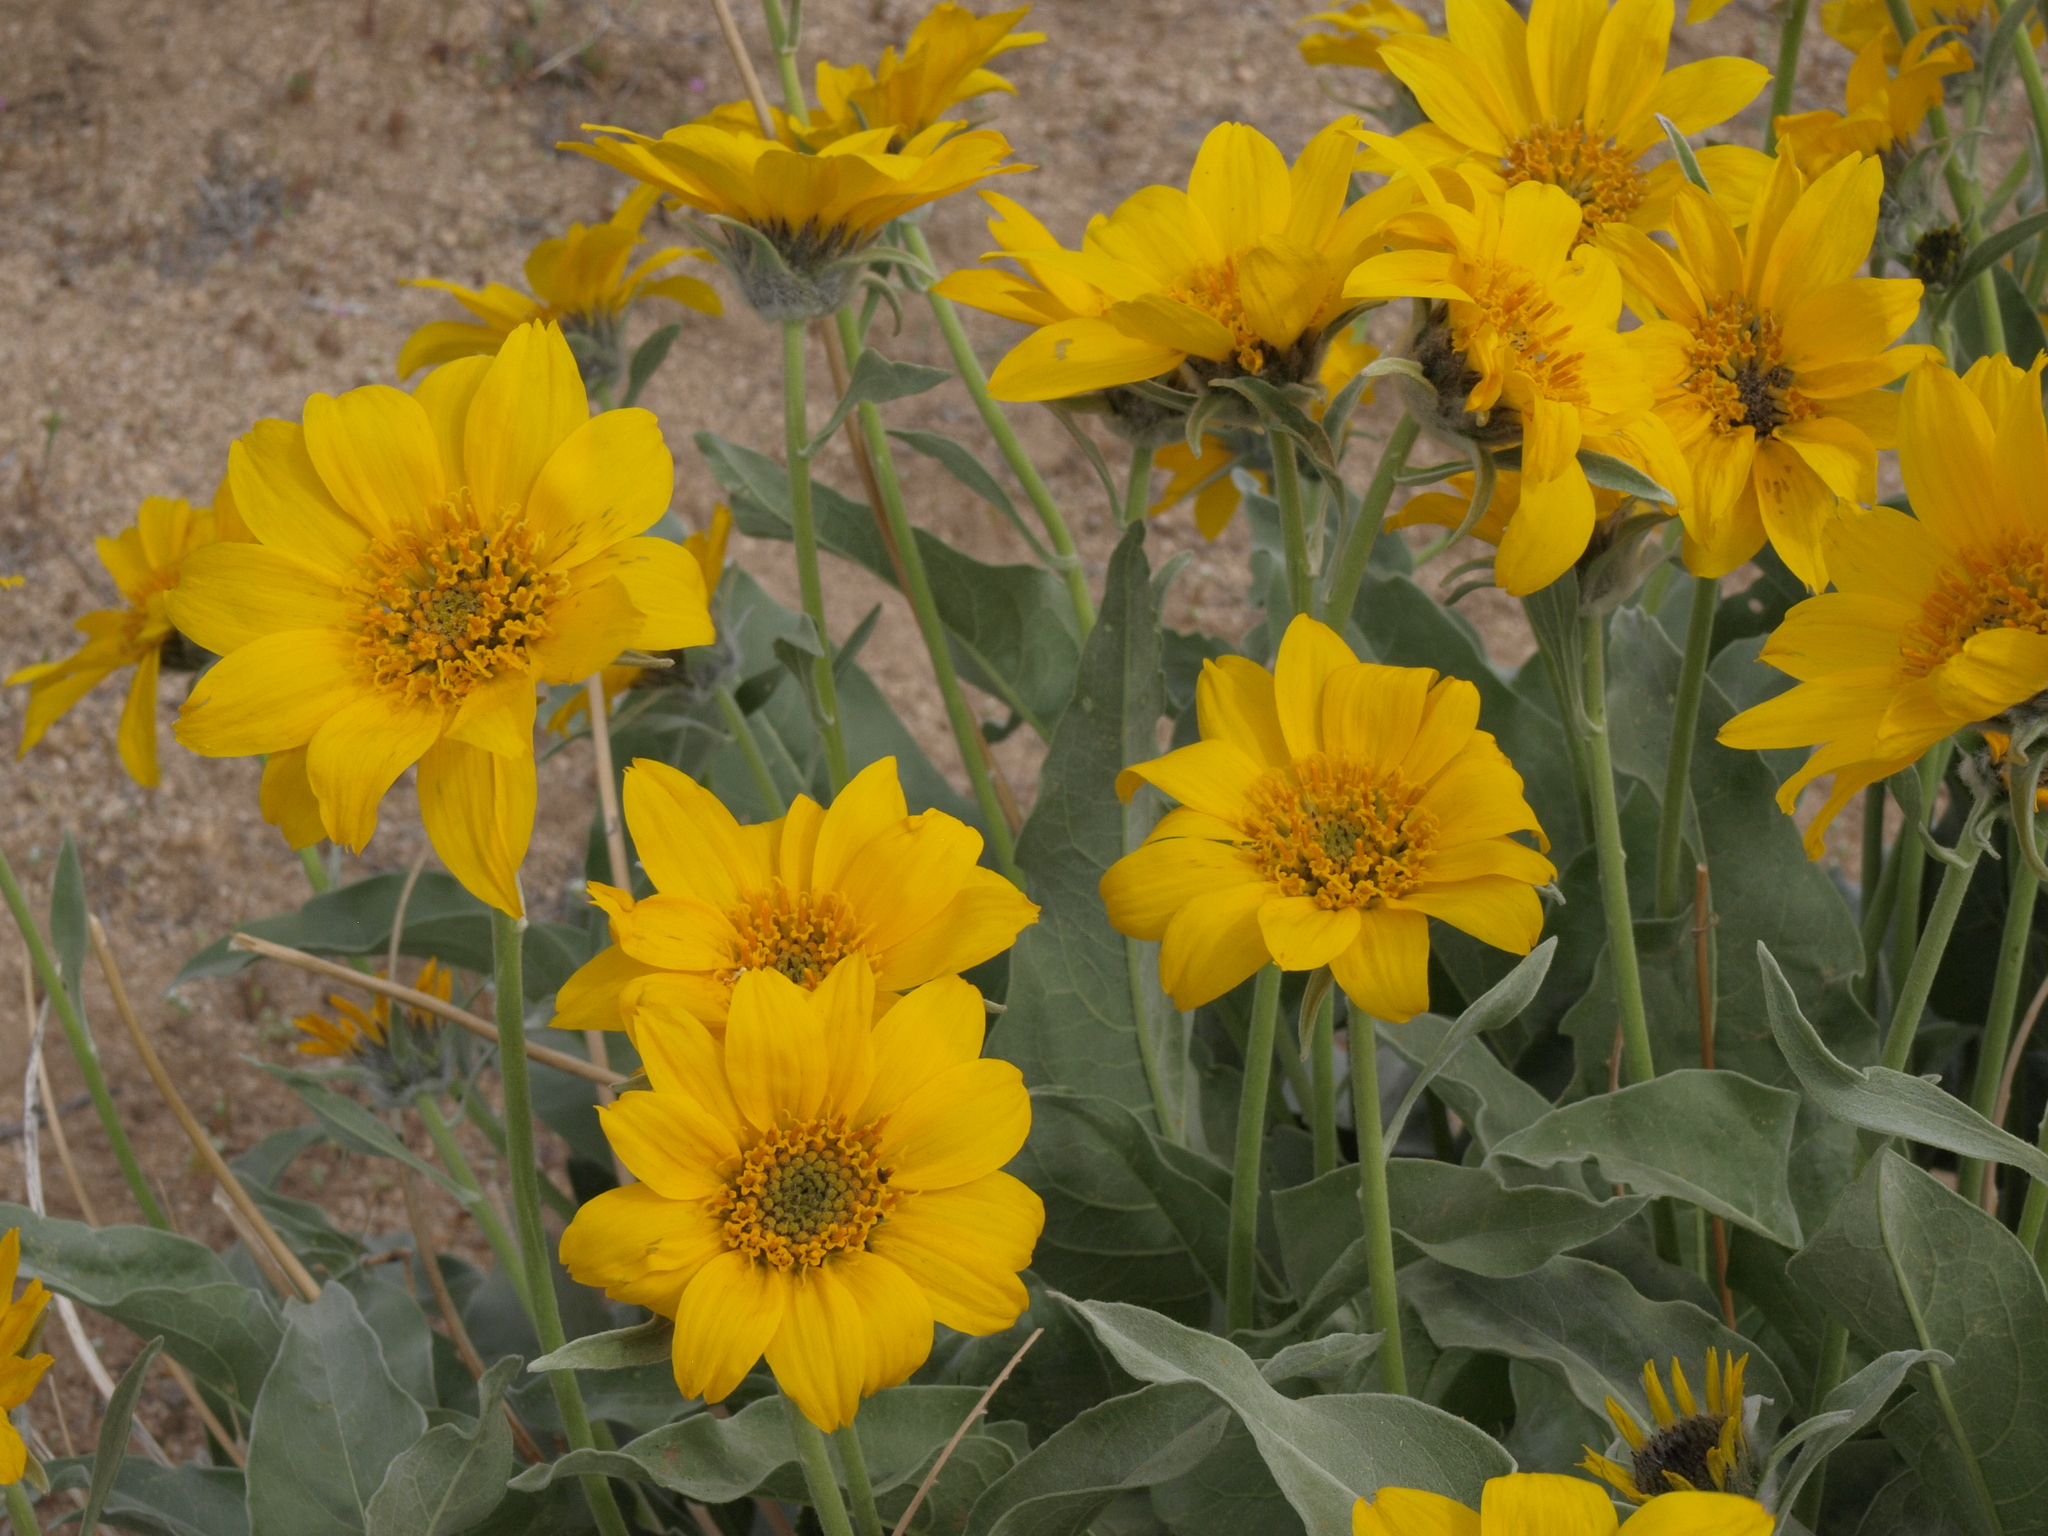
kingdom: Plantae
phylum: Tracheophyta
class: Magnoliopsida
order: Asterales
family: Asteraceae
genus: Wyethia
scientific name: Wyethia sagittata
